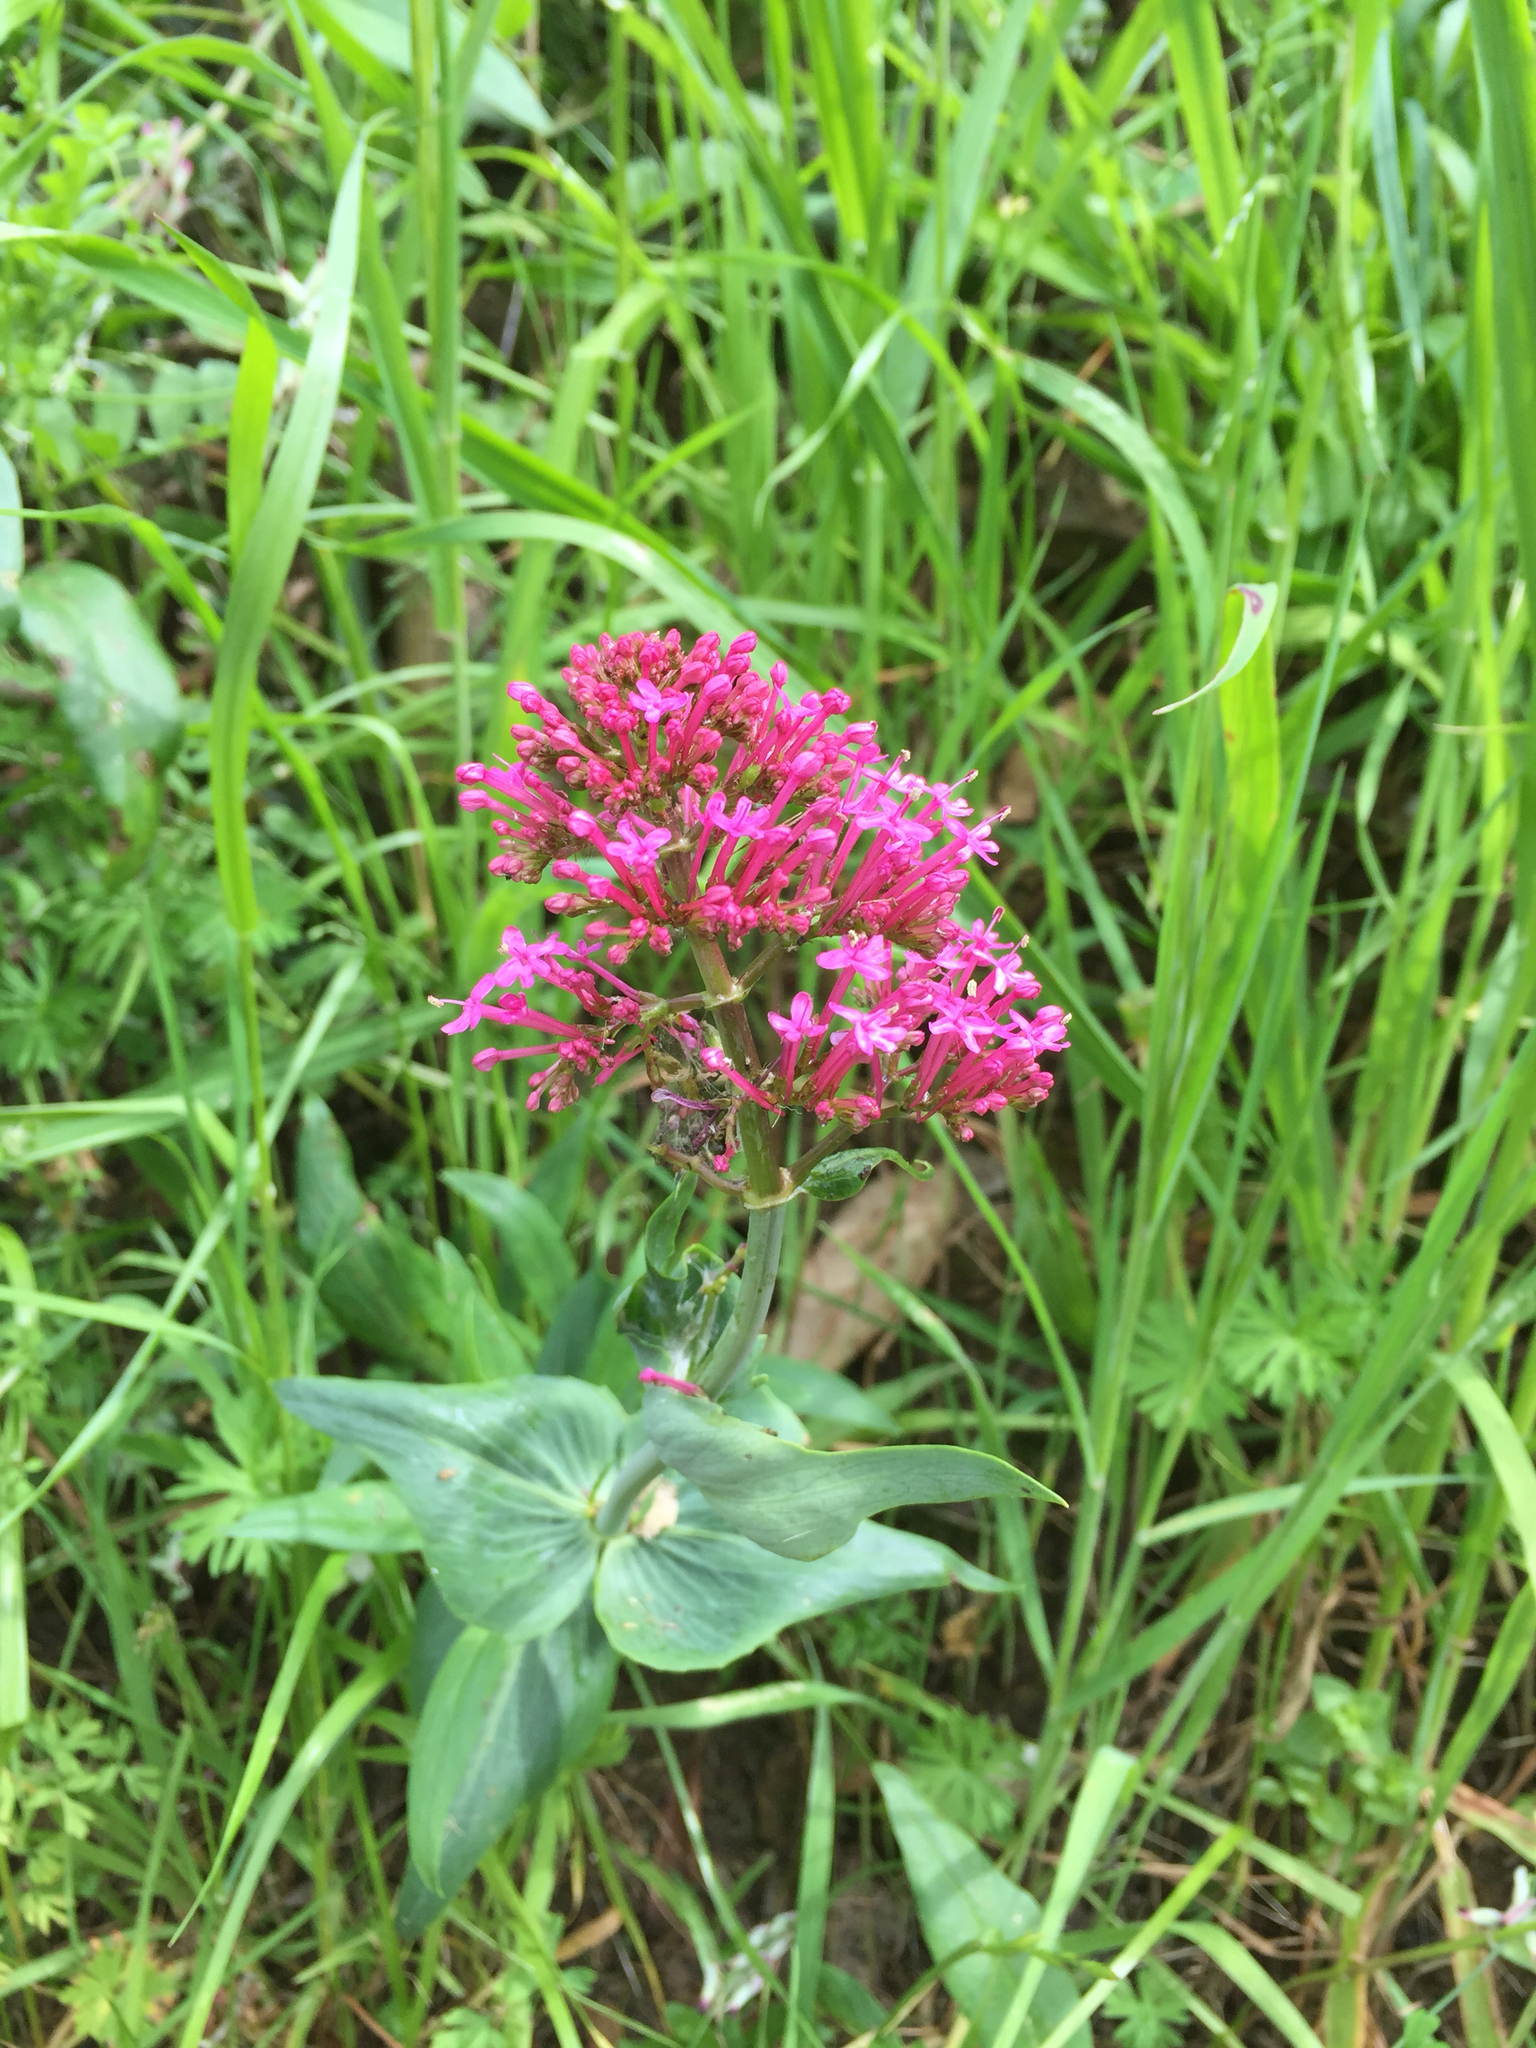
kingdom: Plantae
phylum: Tracheophyta
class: Magnoliopsida
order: Dipsacales
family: Caprifoliaceae
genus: Centranthus
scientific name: Centranthus ruber
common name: Red valerian
